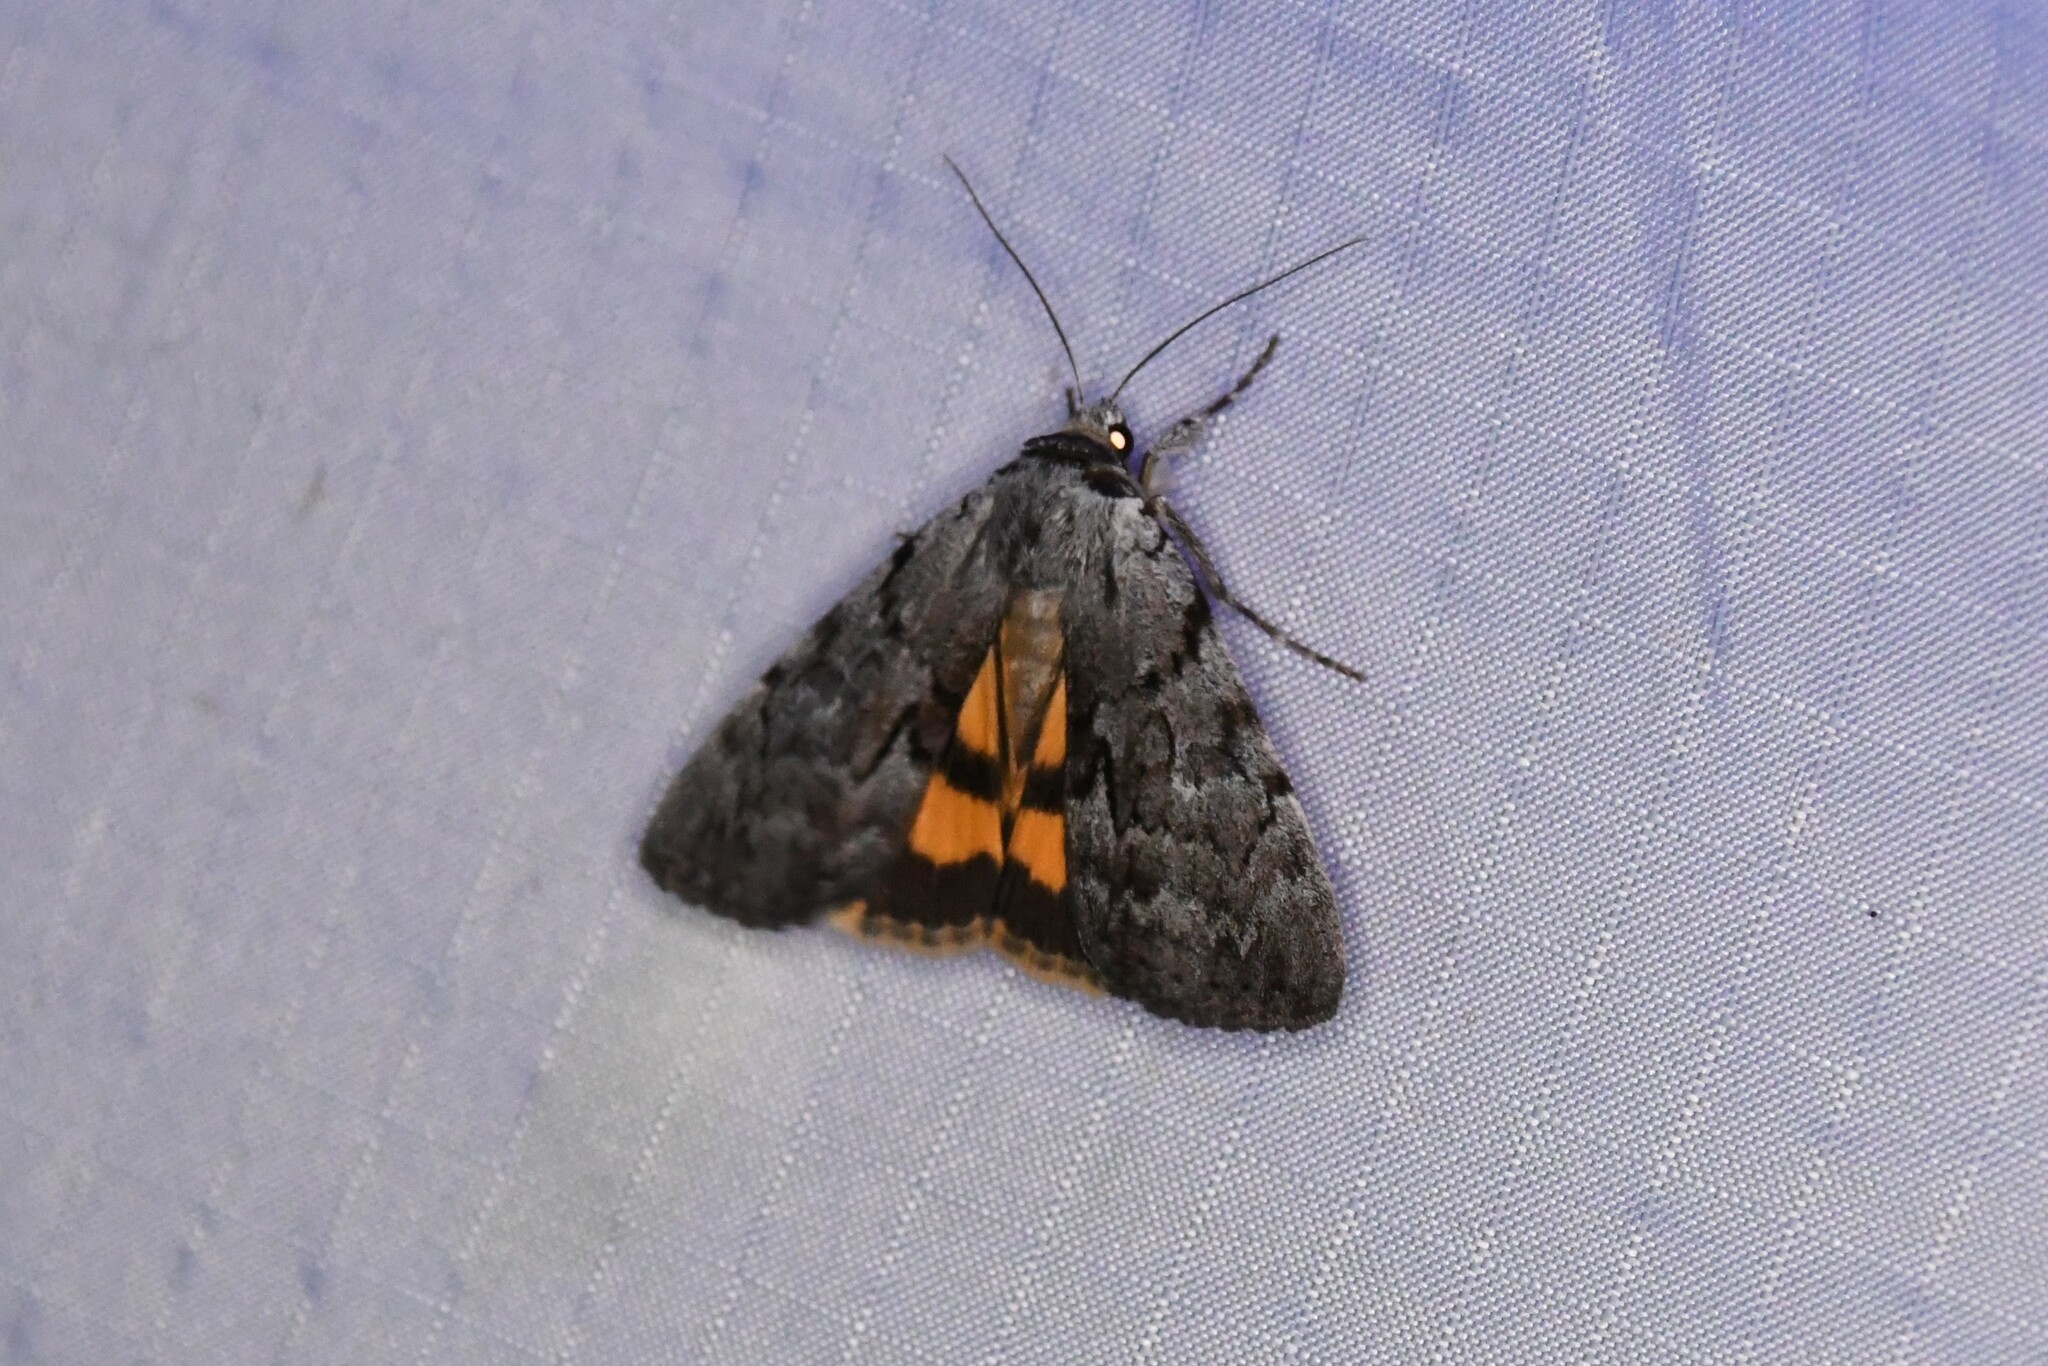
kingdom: Animalia
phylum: Arthropoda
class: Insecta
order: Lepidoptera
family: Erebidae
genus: Catocala
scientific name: Catocala sordida
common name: Sordid underwing
